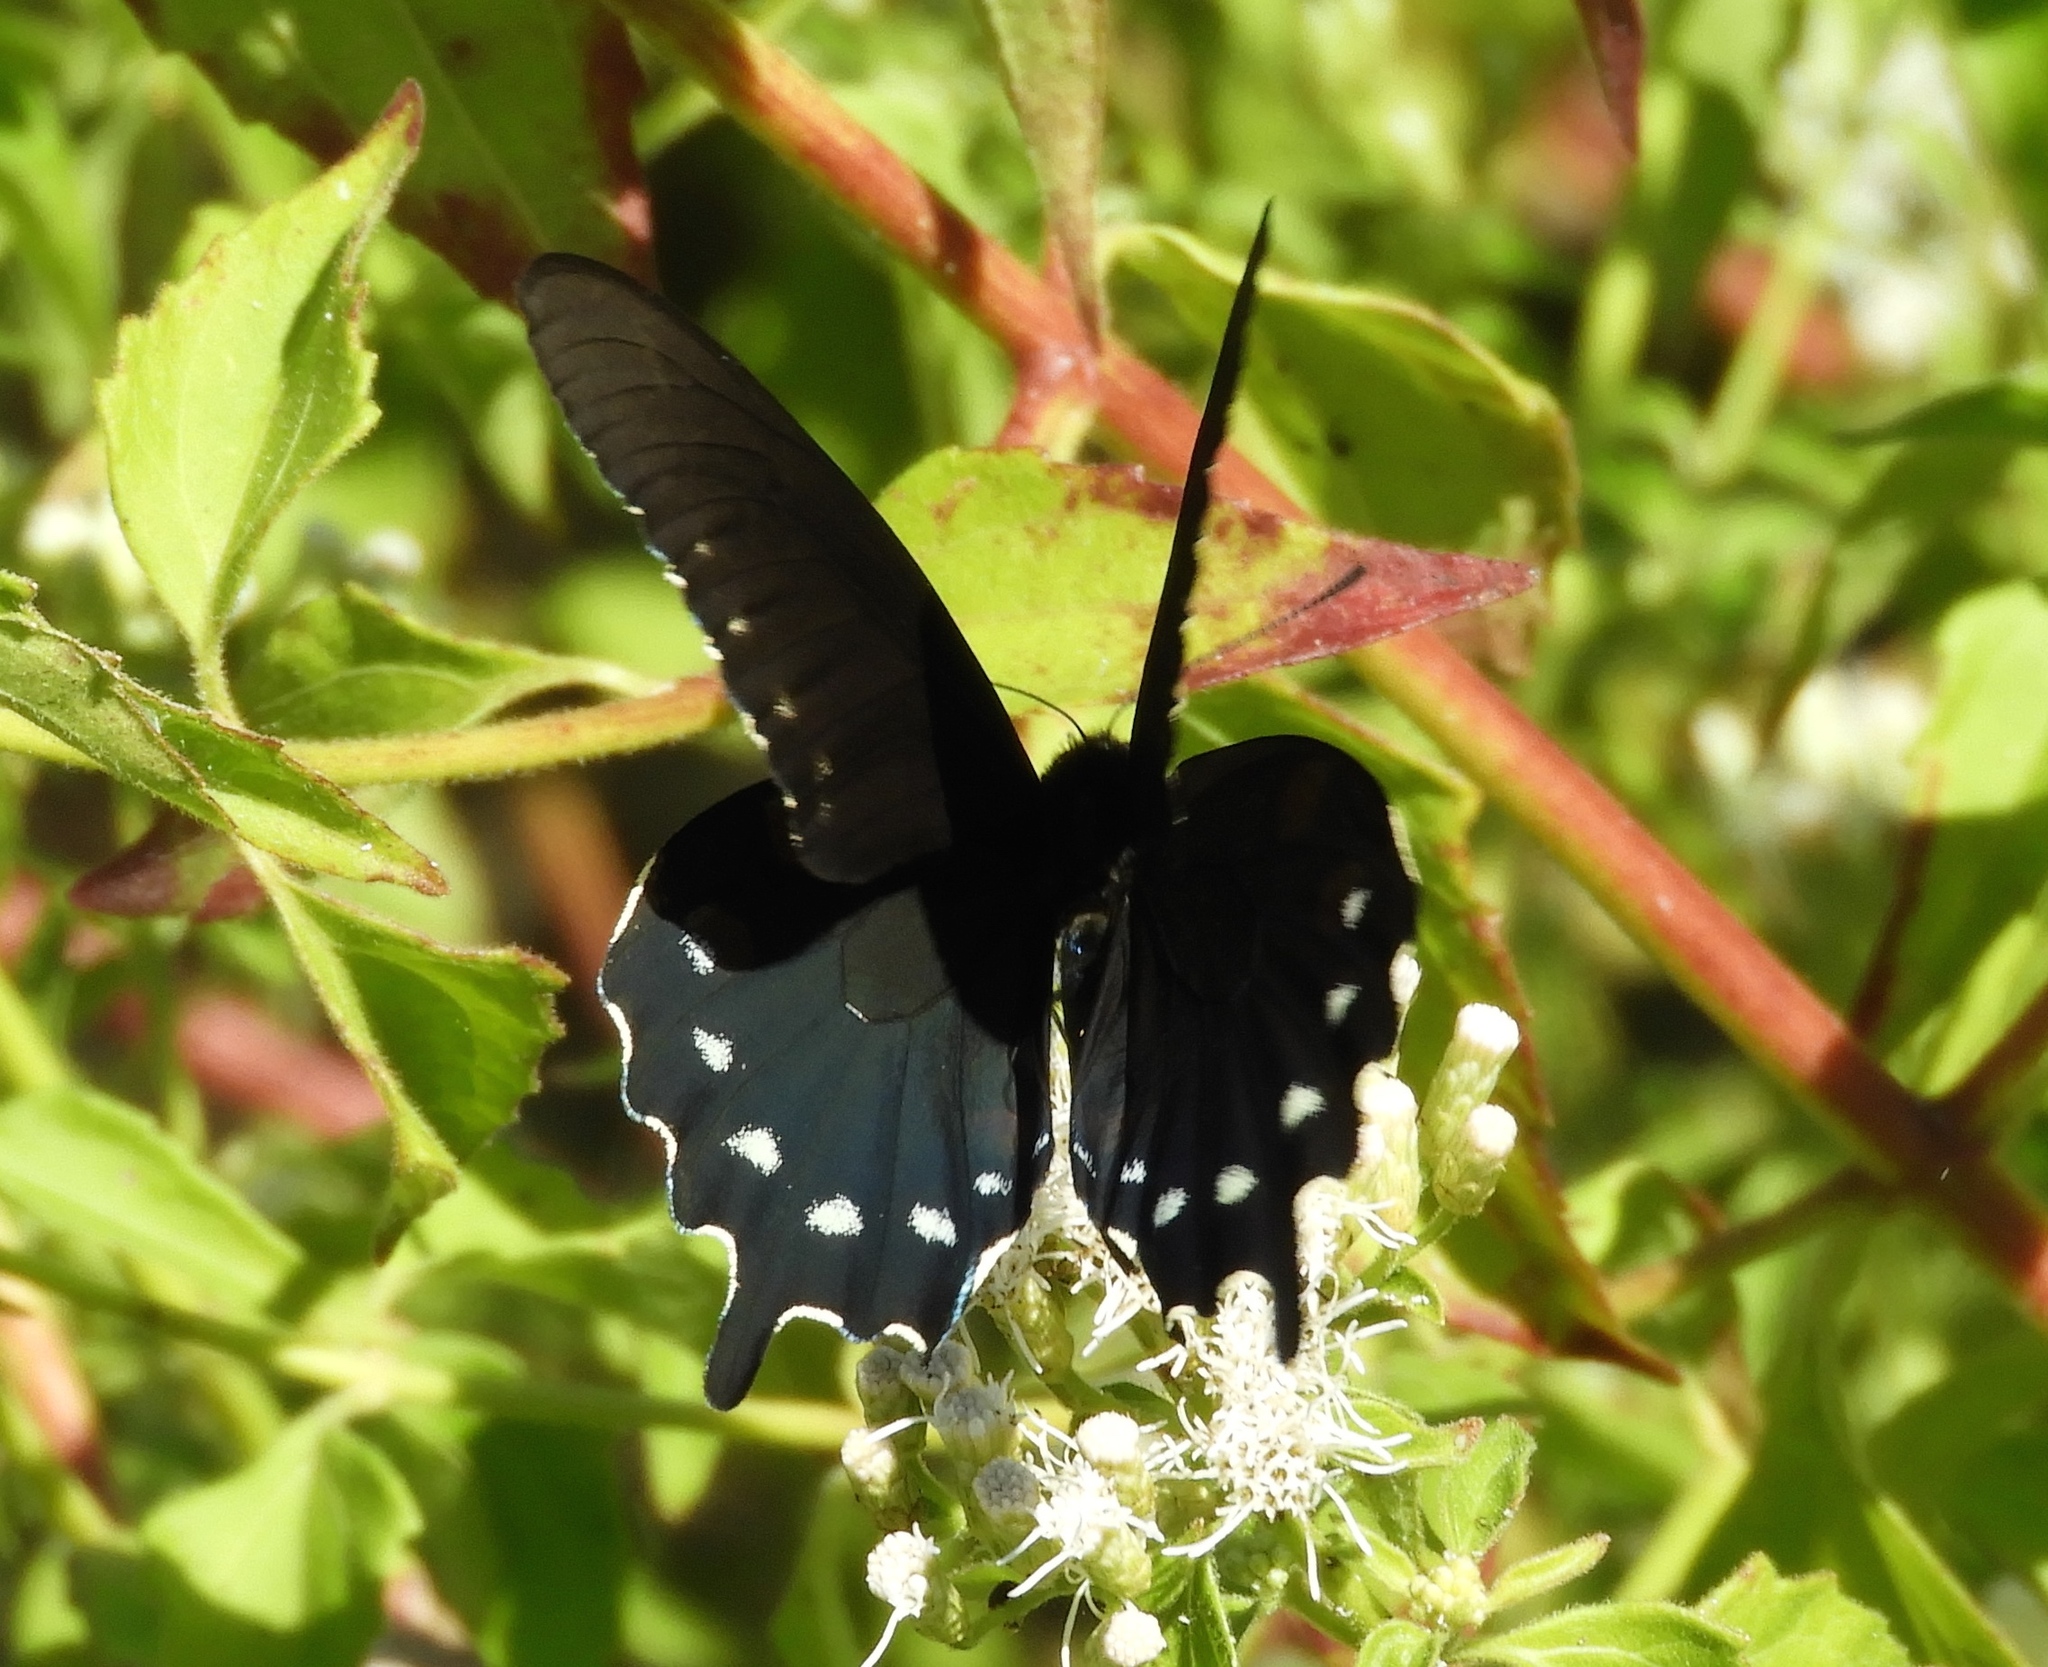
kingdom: Animalia
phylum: Arthropoda
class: Insecta
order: Lepidoptera
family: Papilionidae
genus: Battus
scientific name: Battus philenor
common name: Pipevine swallowtail
